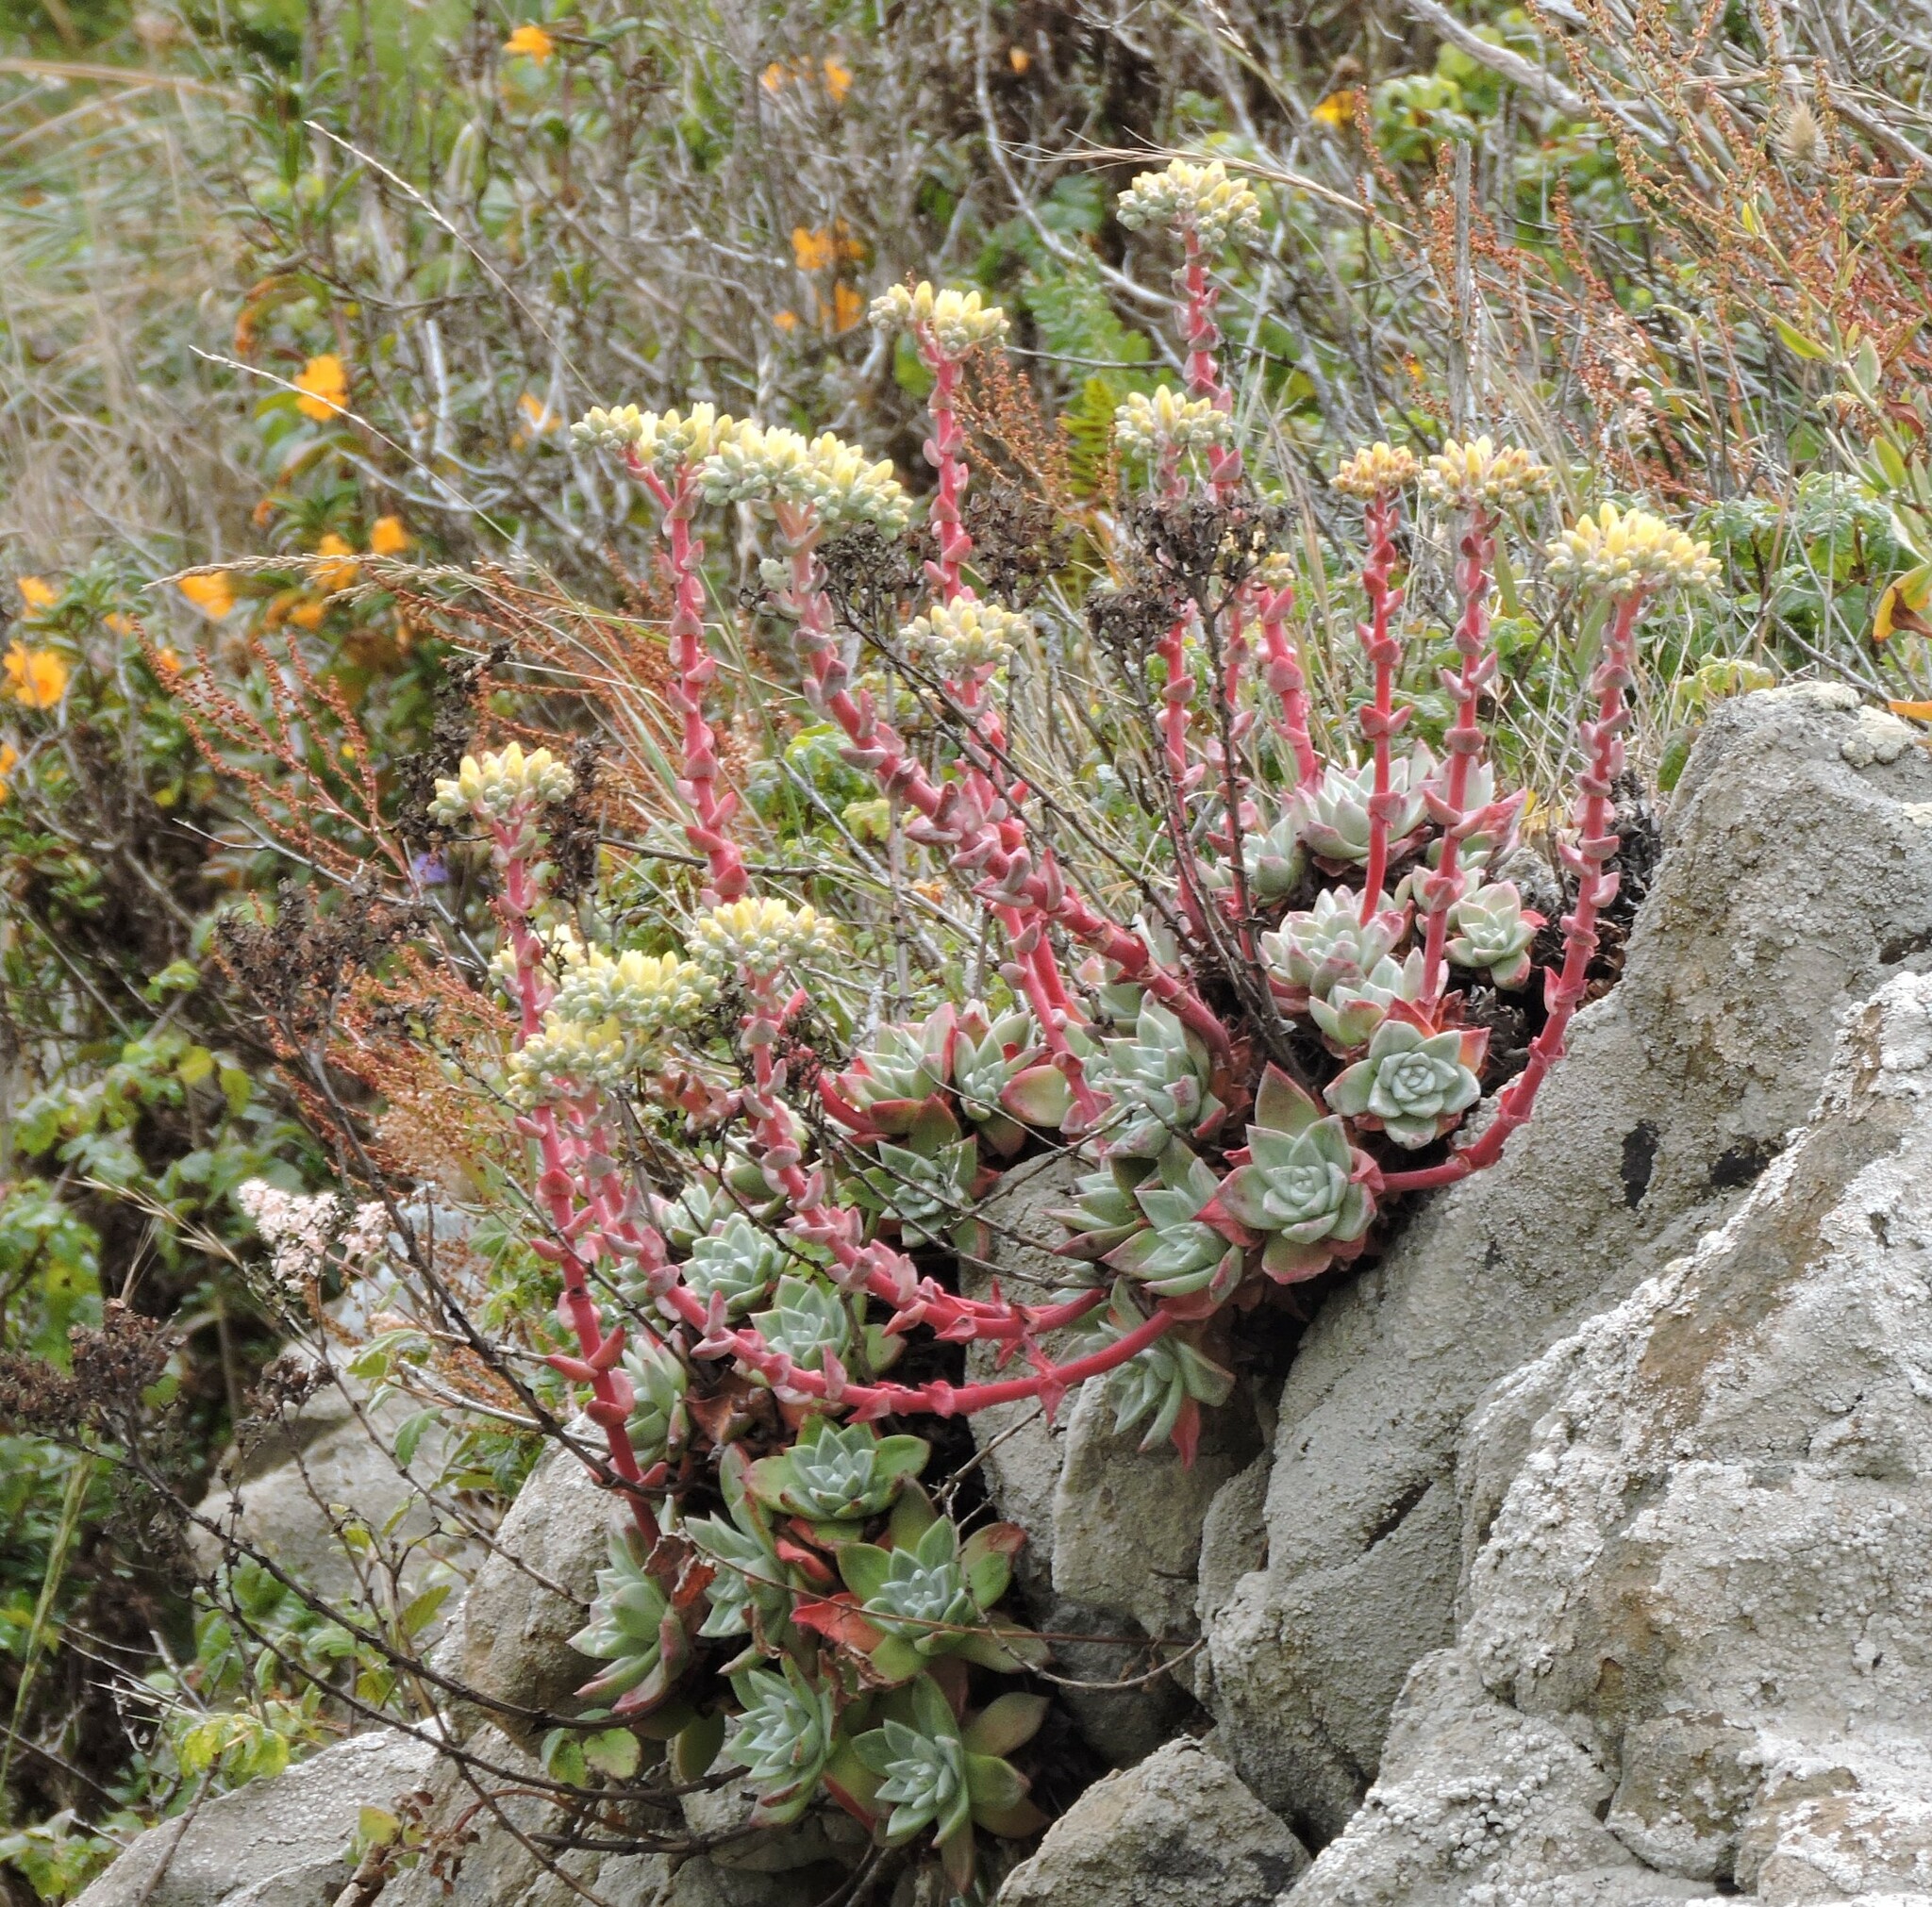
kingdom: Plantae
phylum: Tracheophyta
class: Magnoliopsida
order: Saxifragales
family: Crassulaceae
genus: Dudleya
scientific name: Dudleya farinosa
